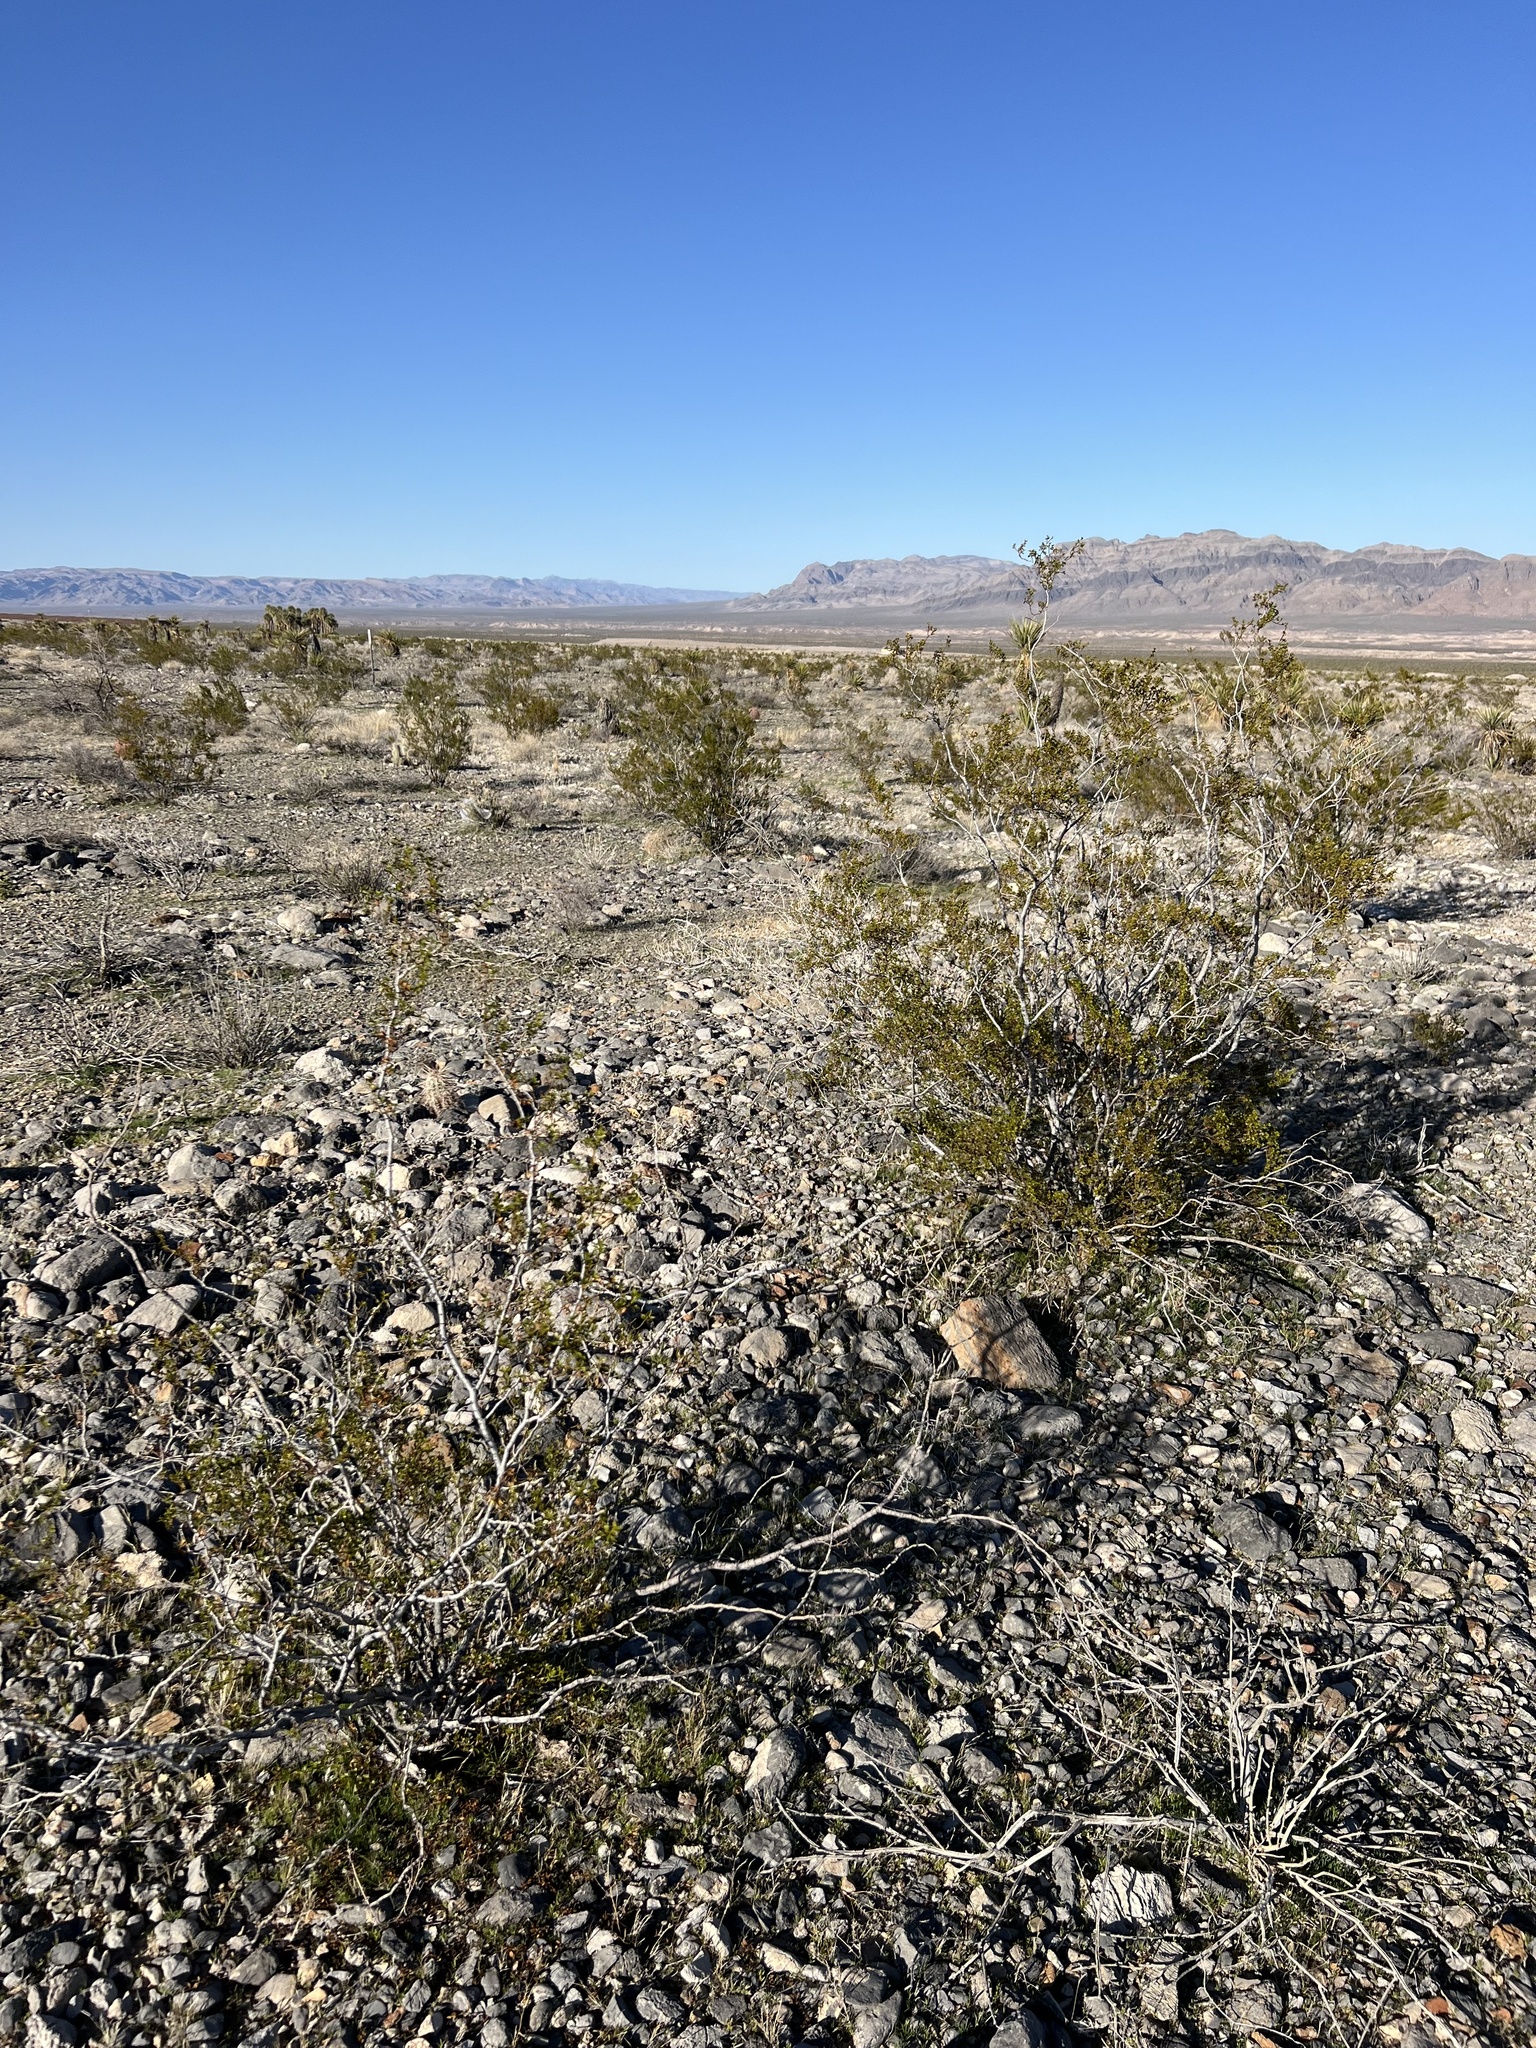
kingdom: Plantae
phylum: Tracheophyta
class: Magnoliopsida
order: Zygophyllales
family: Zygophyllaceae
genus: Larrea
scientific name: Larrea tridentata
